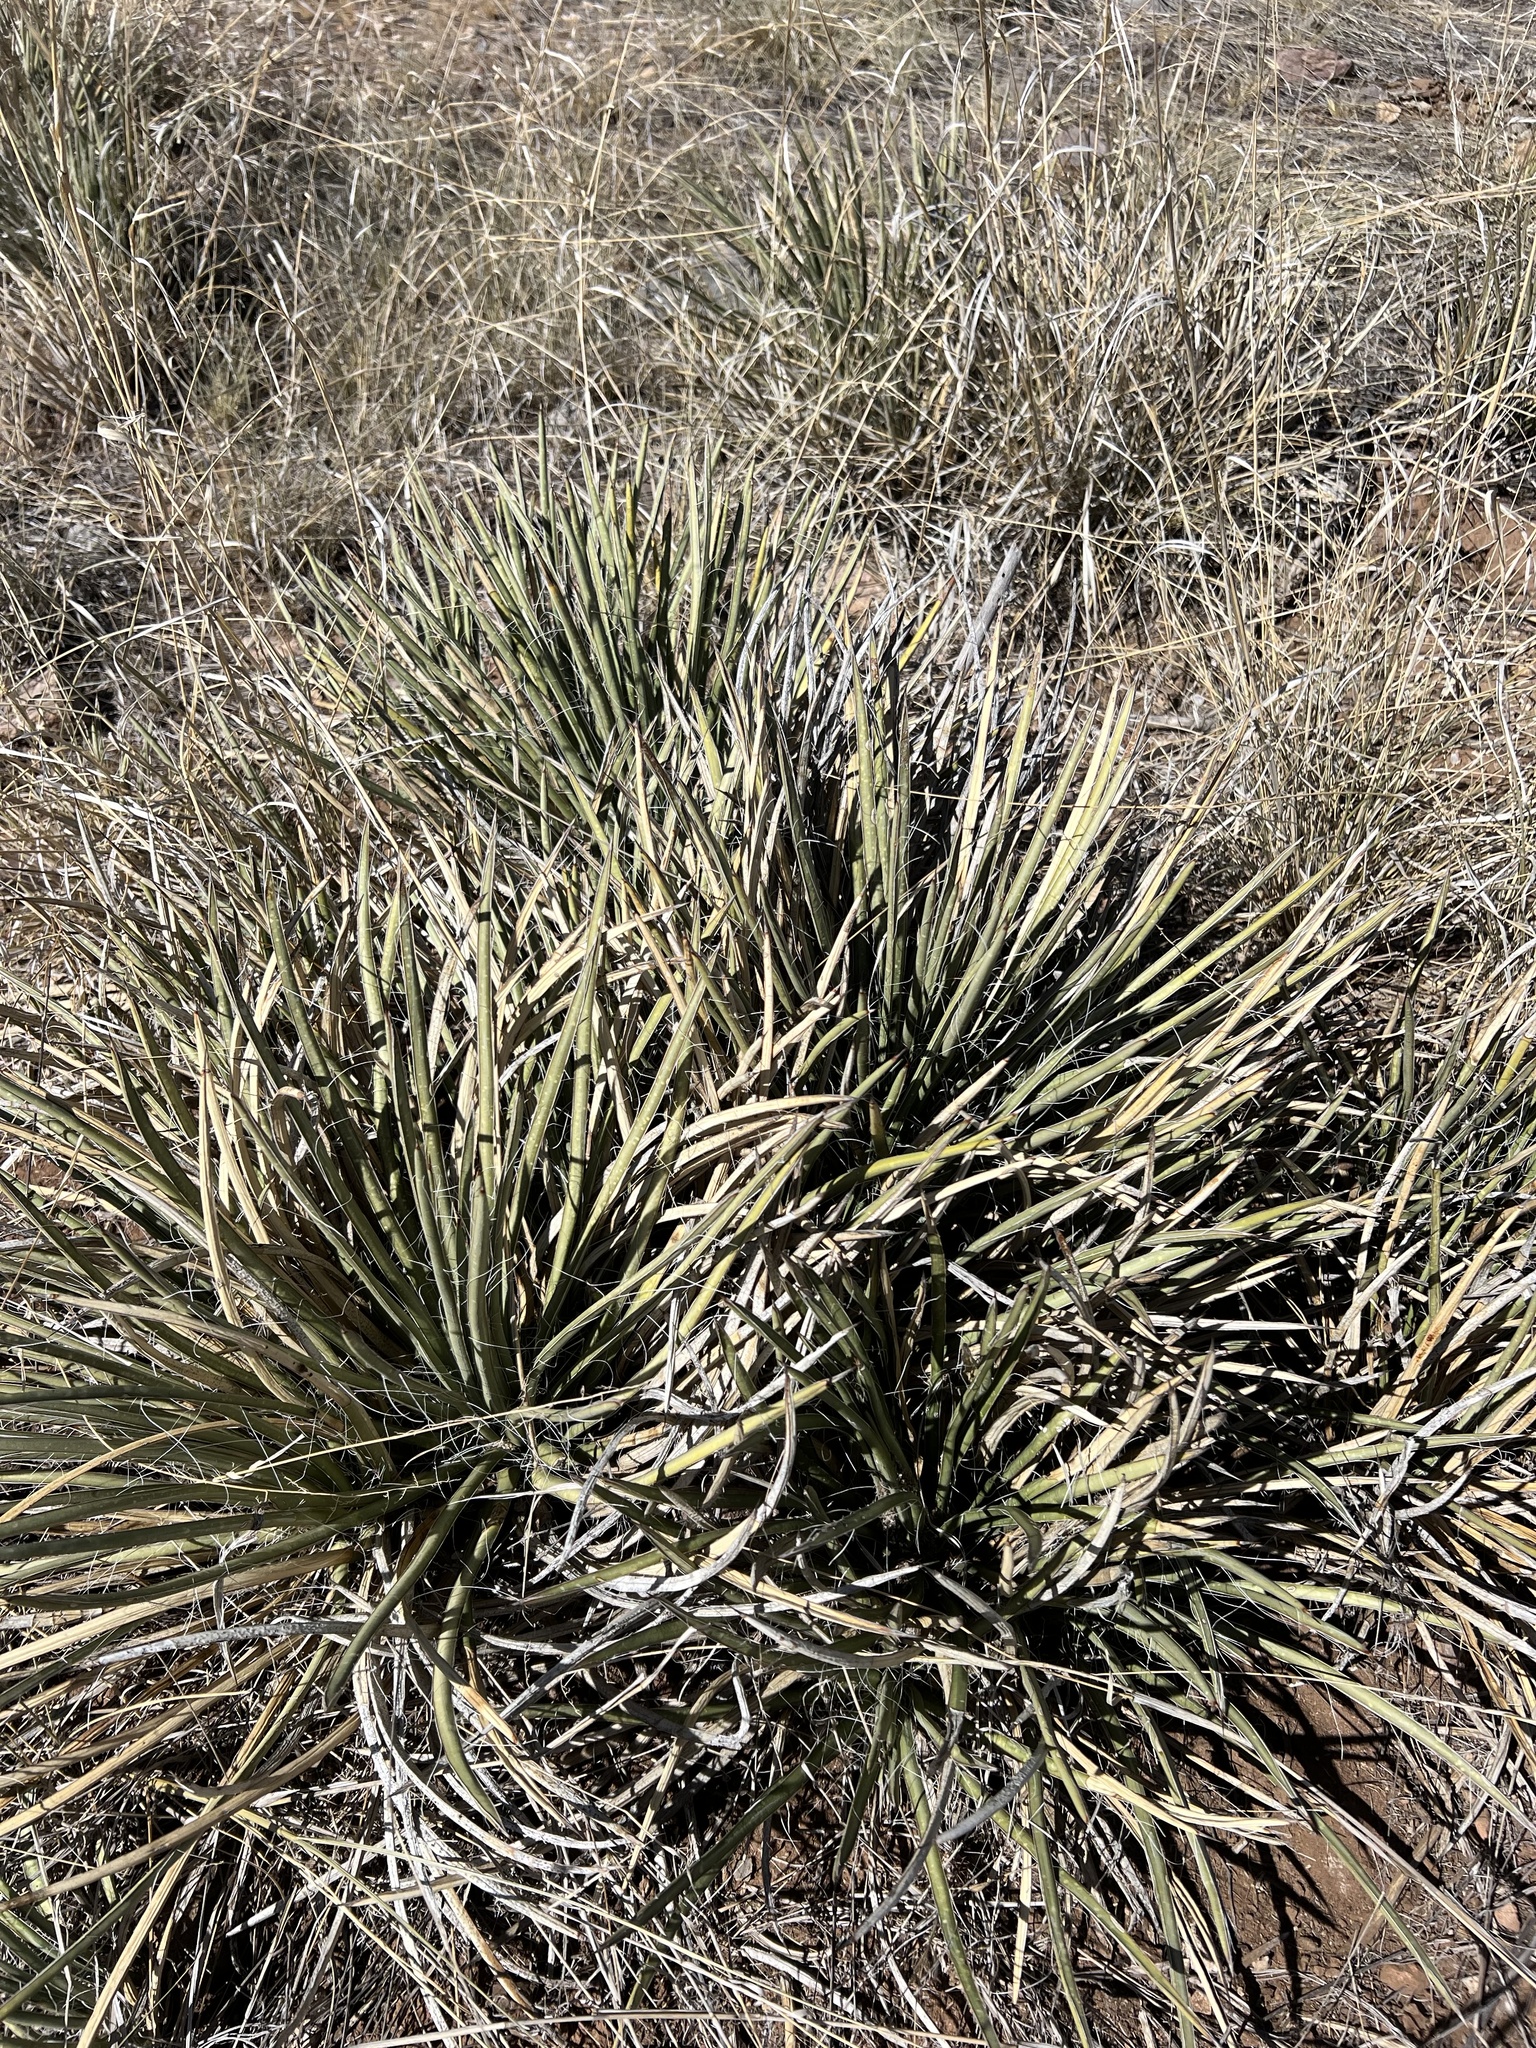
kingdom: Plantae
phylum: Tracheophyta
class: Liliopsida
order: Asparagales
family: Asparagaceae
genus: Agave
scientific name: Agave schottii
